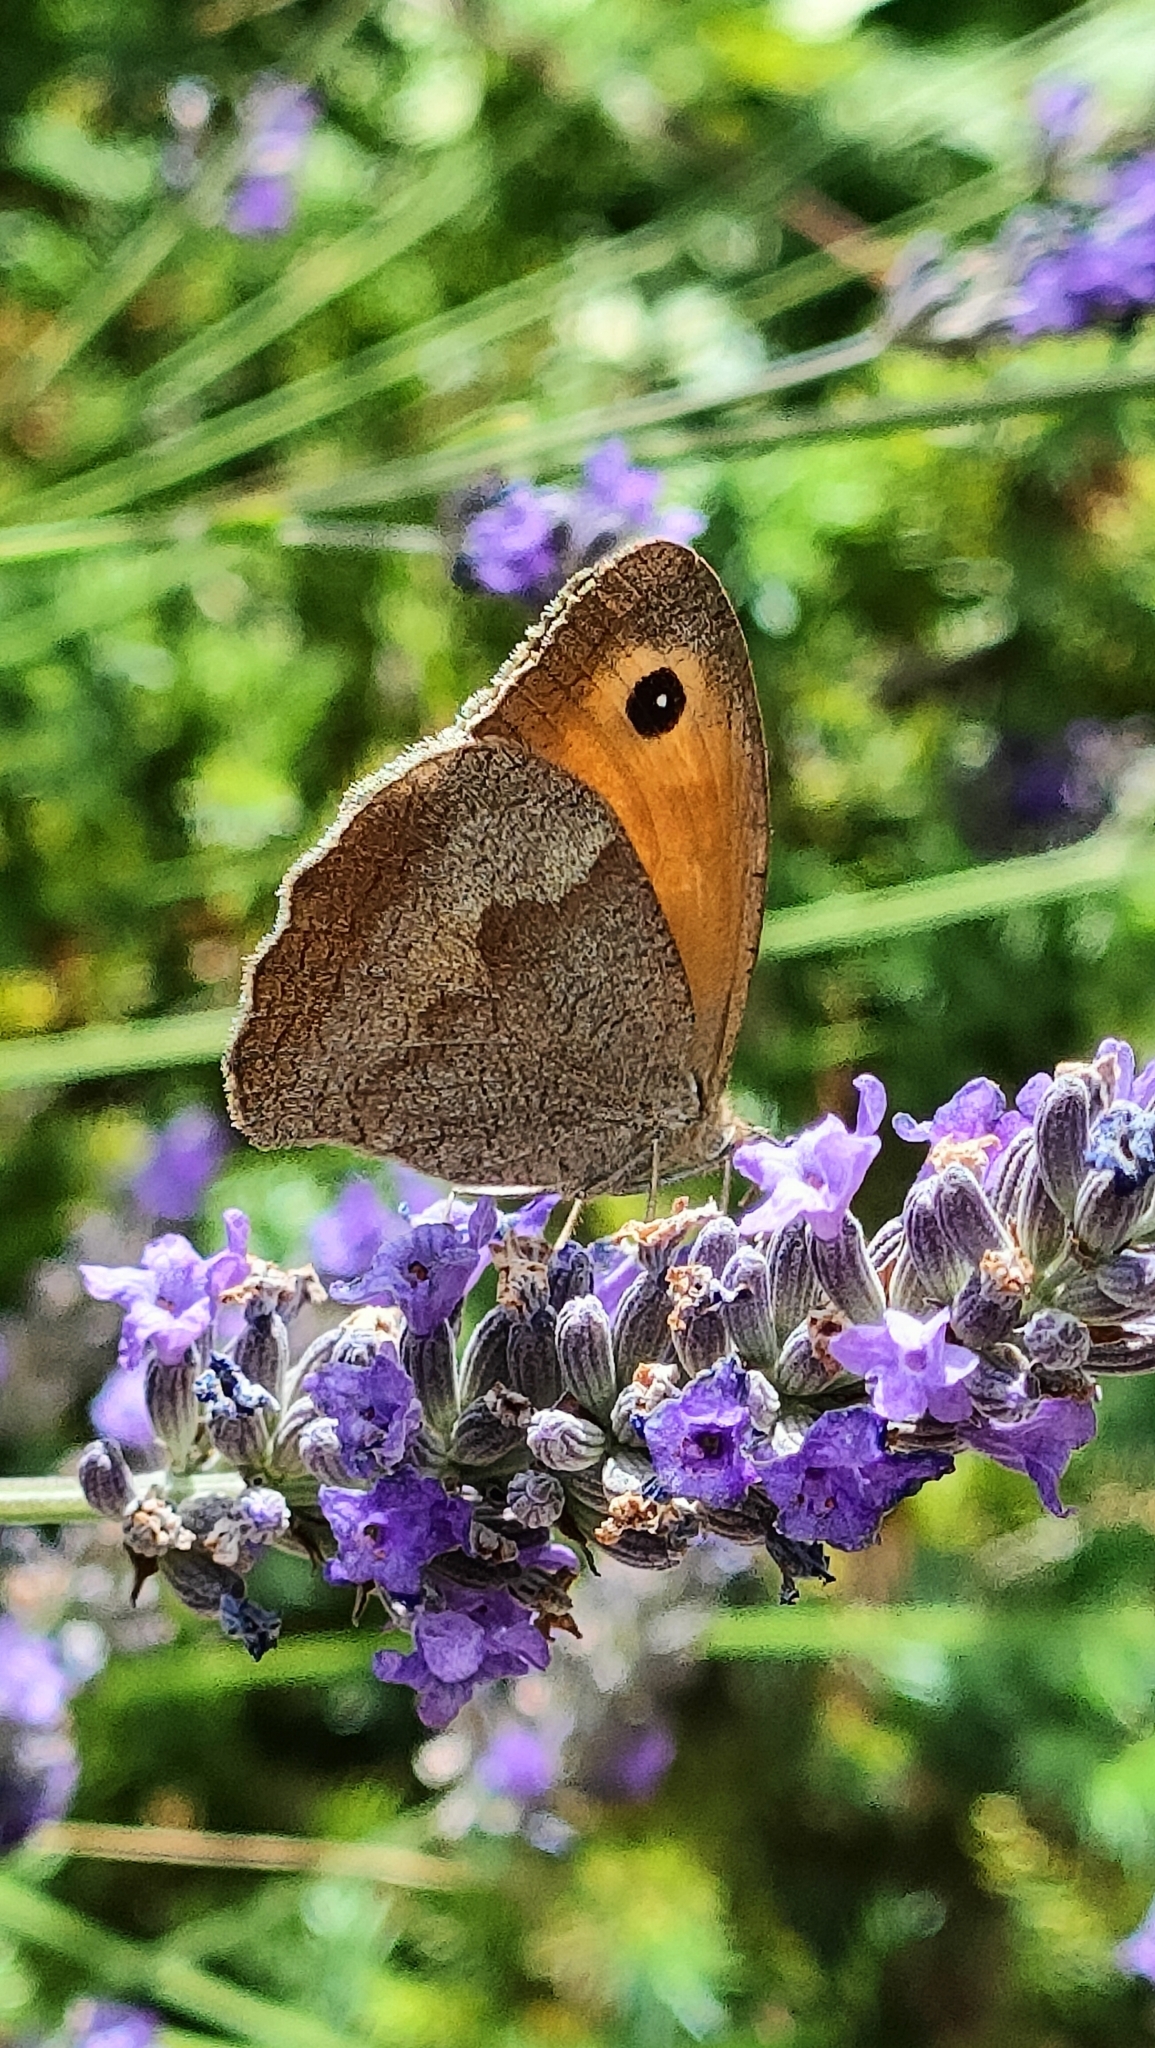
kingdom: Animalia
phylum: Arthropoda
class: Insecta
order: Lepidoptera
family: Nymphalidae
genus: Maniola
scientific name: Maniola jurtina
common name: Meadow brown
